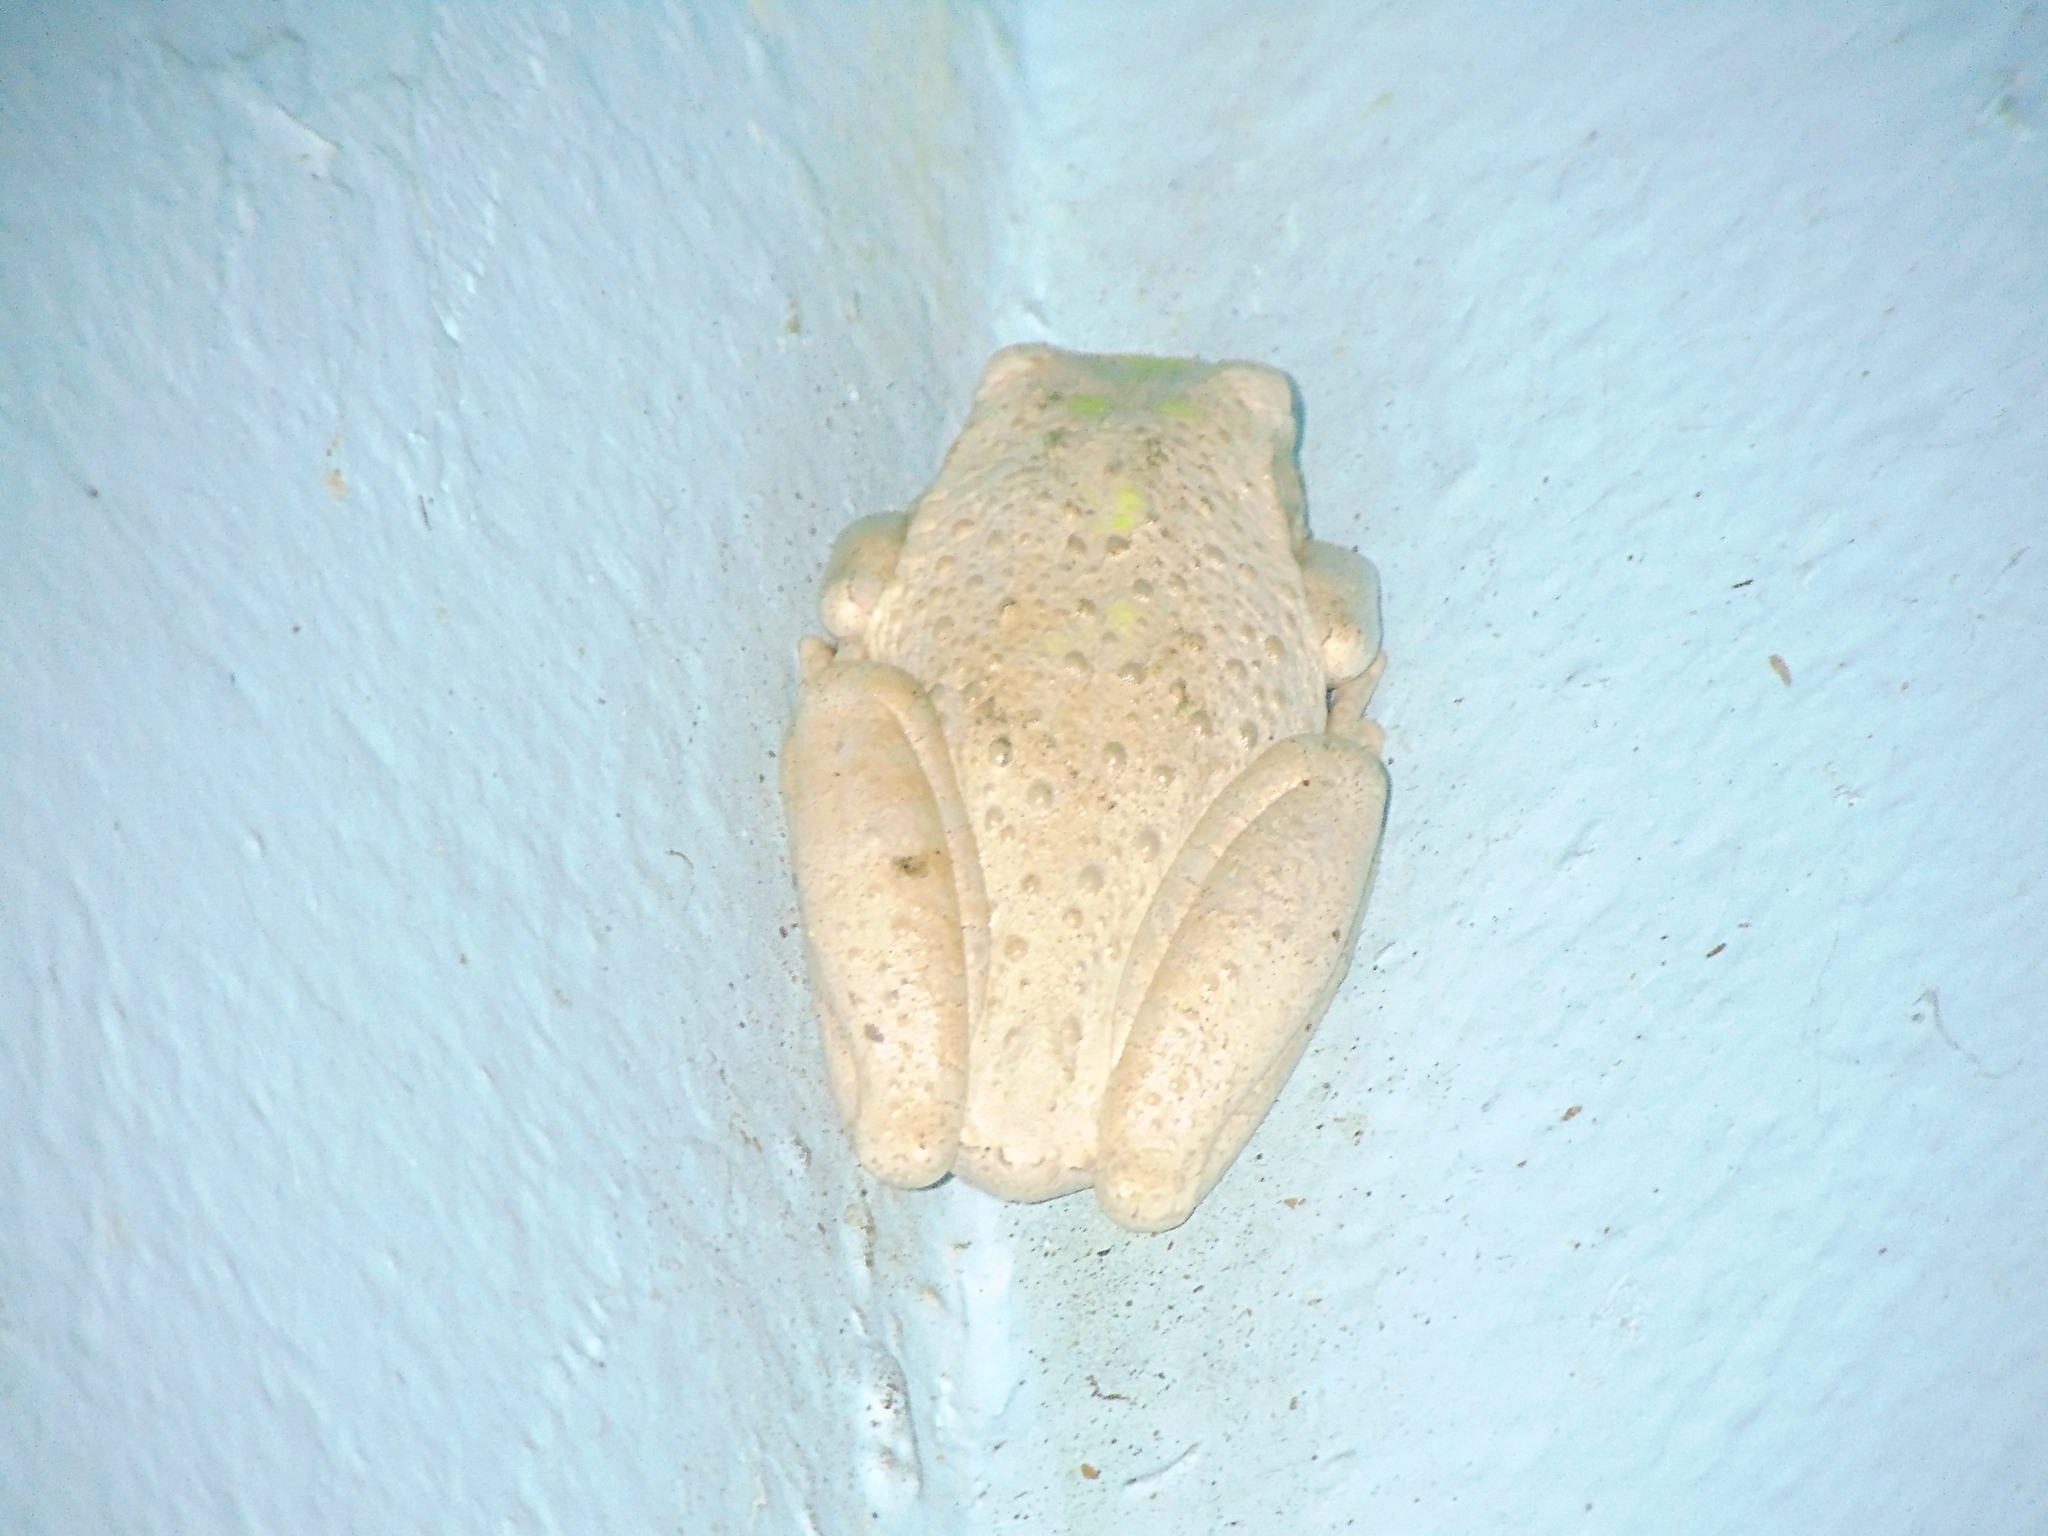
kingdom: Animalia
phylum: Chordata
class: Amphibia
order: Anura
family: Hylidae
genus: Osteopilus
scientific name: Osteopilus septentrionalis
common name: Cuban treefrog
